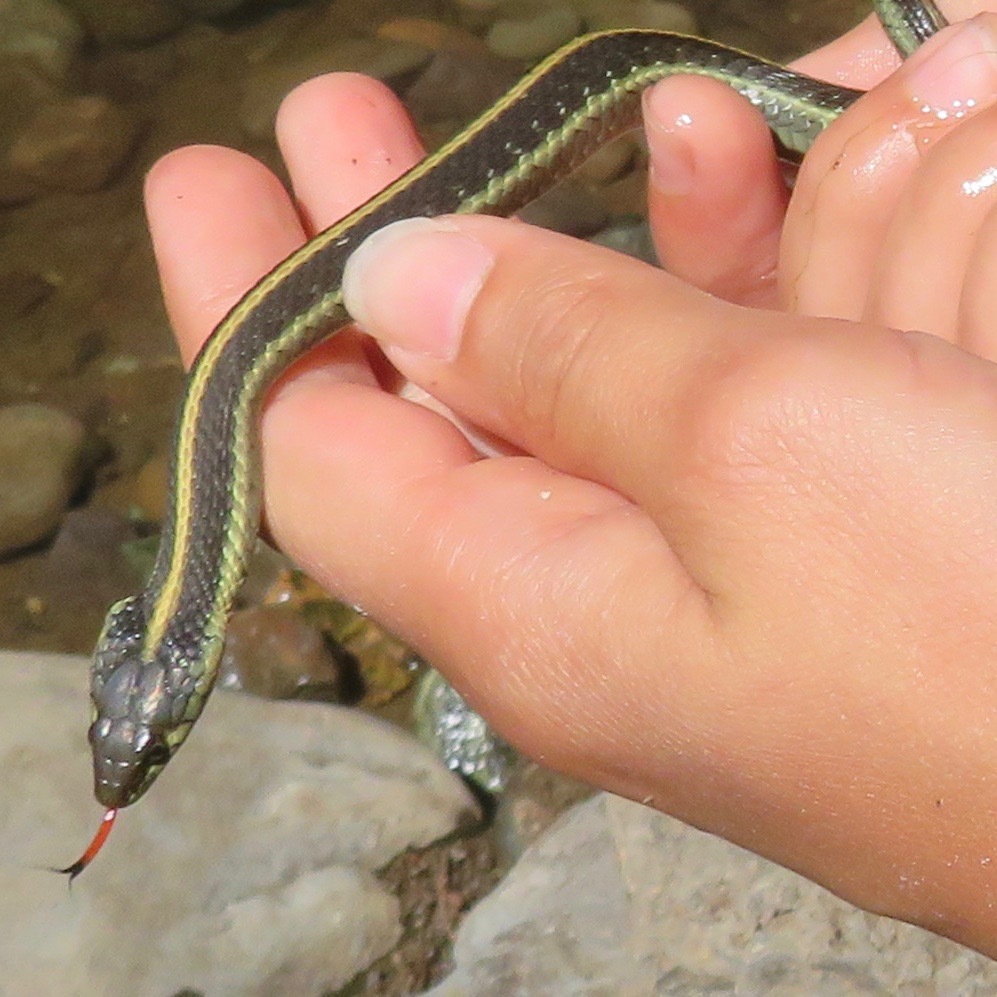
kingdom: Animalia
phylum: Chordata
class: Squamata
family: Colubridae
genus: Thamnophis
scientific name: Thamnophis atratus
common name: Pacific coast aquatic garter snake
